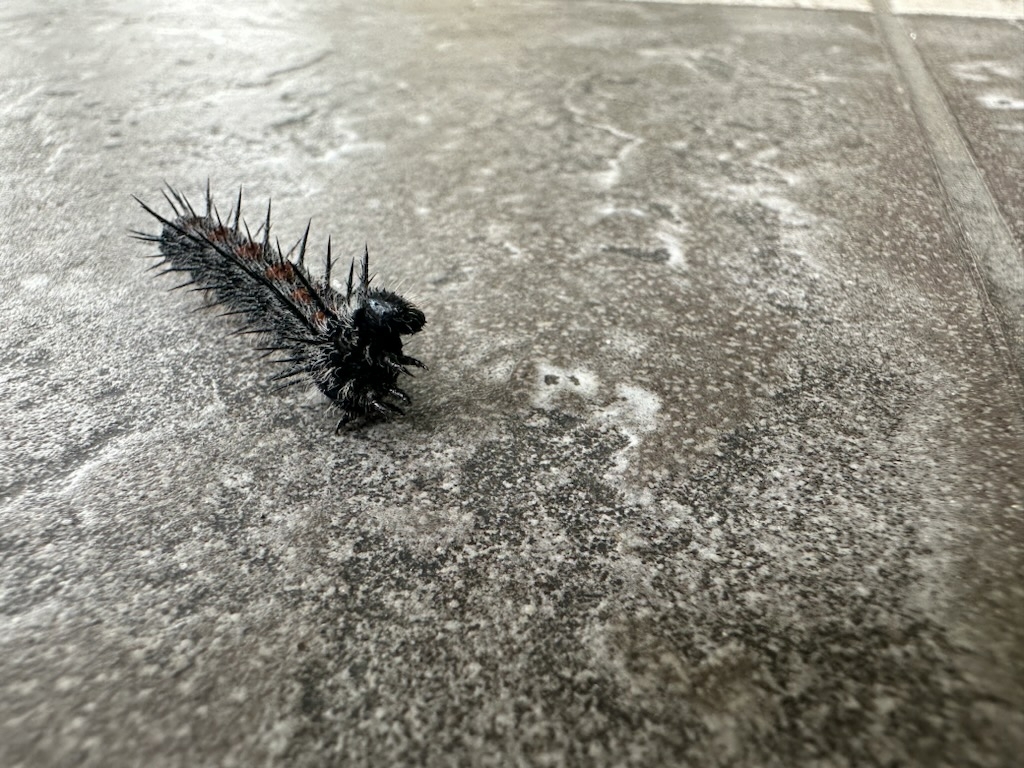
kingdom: Animalia
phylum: Arthropoda
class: Insecta
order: Lepidoptera
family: Nymphalidae
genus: Nymphalis
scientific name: Nymphalis antiopa
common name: Camberwell beauty
